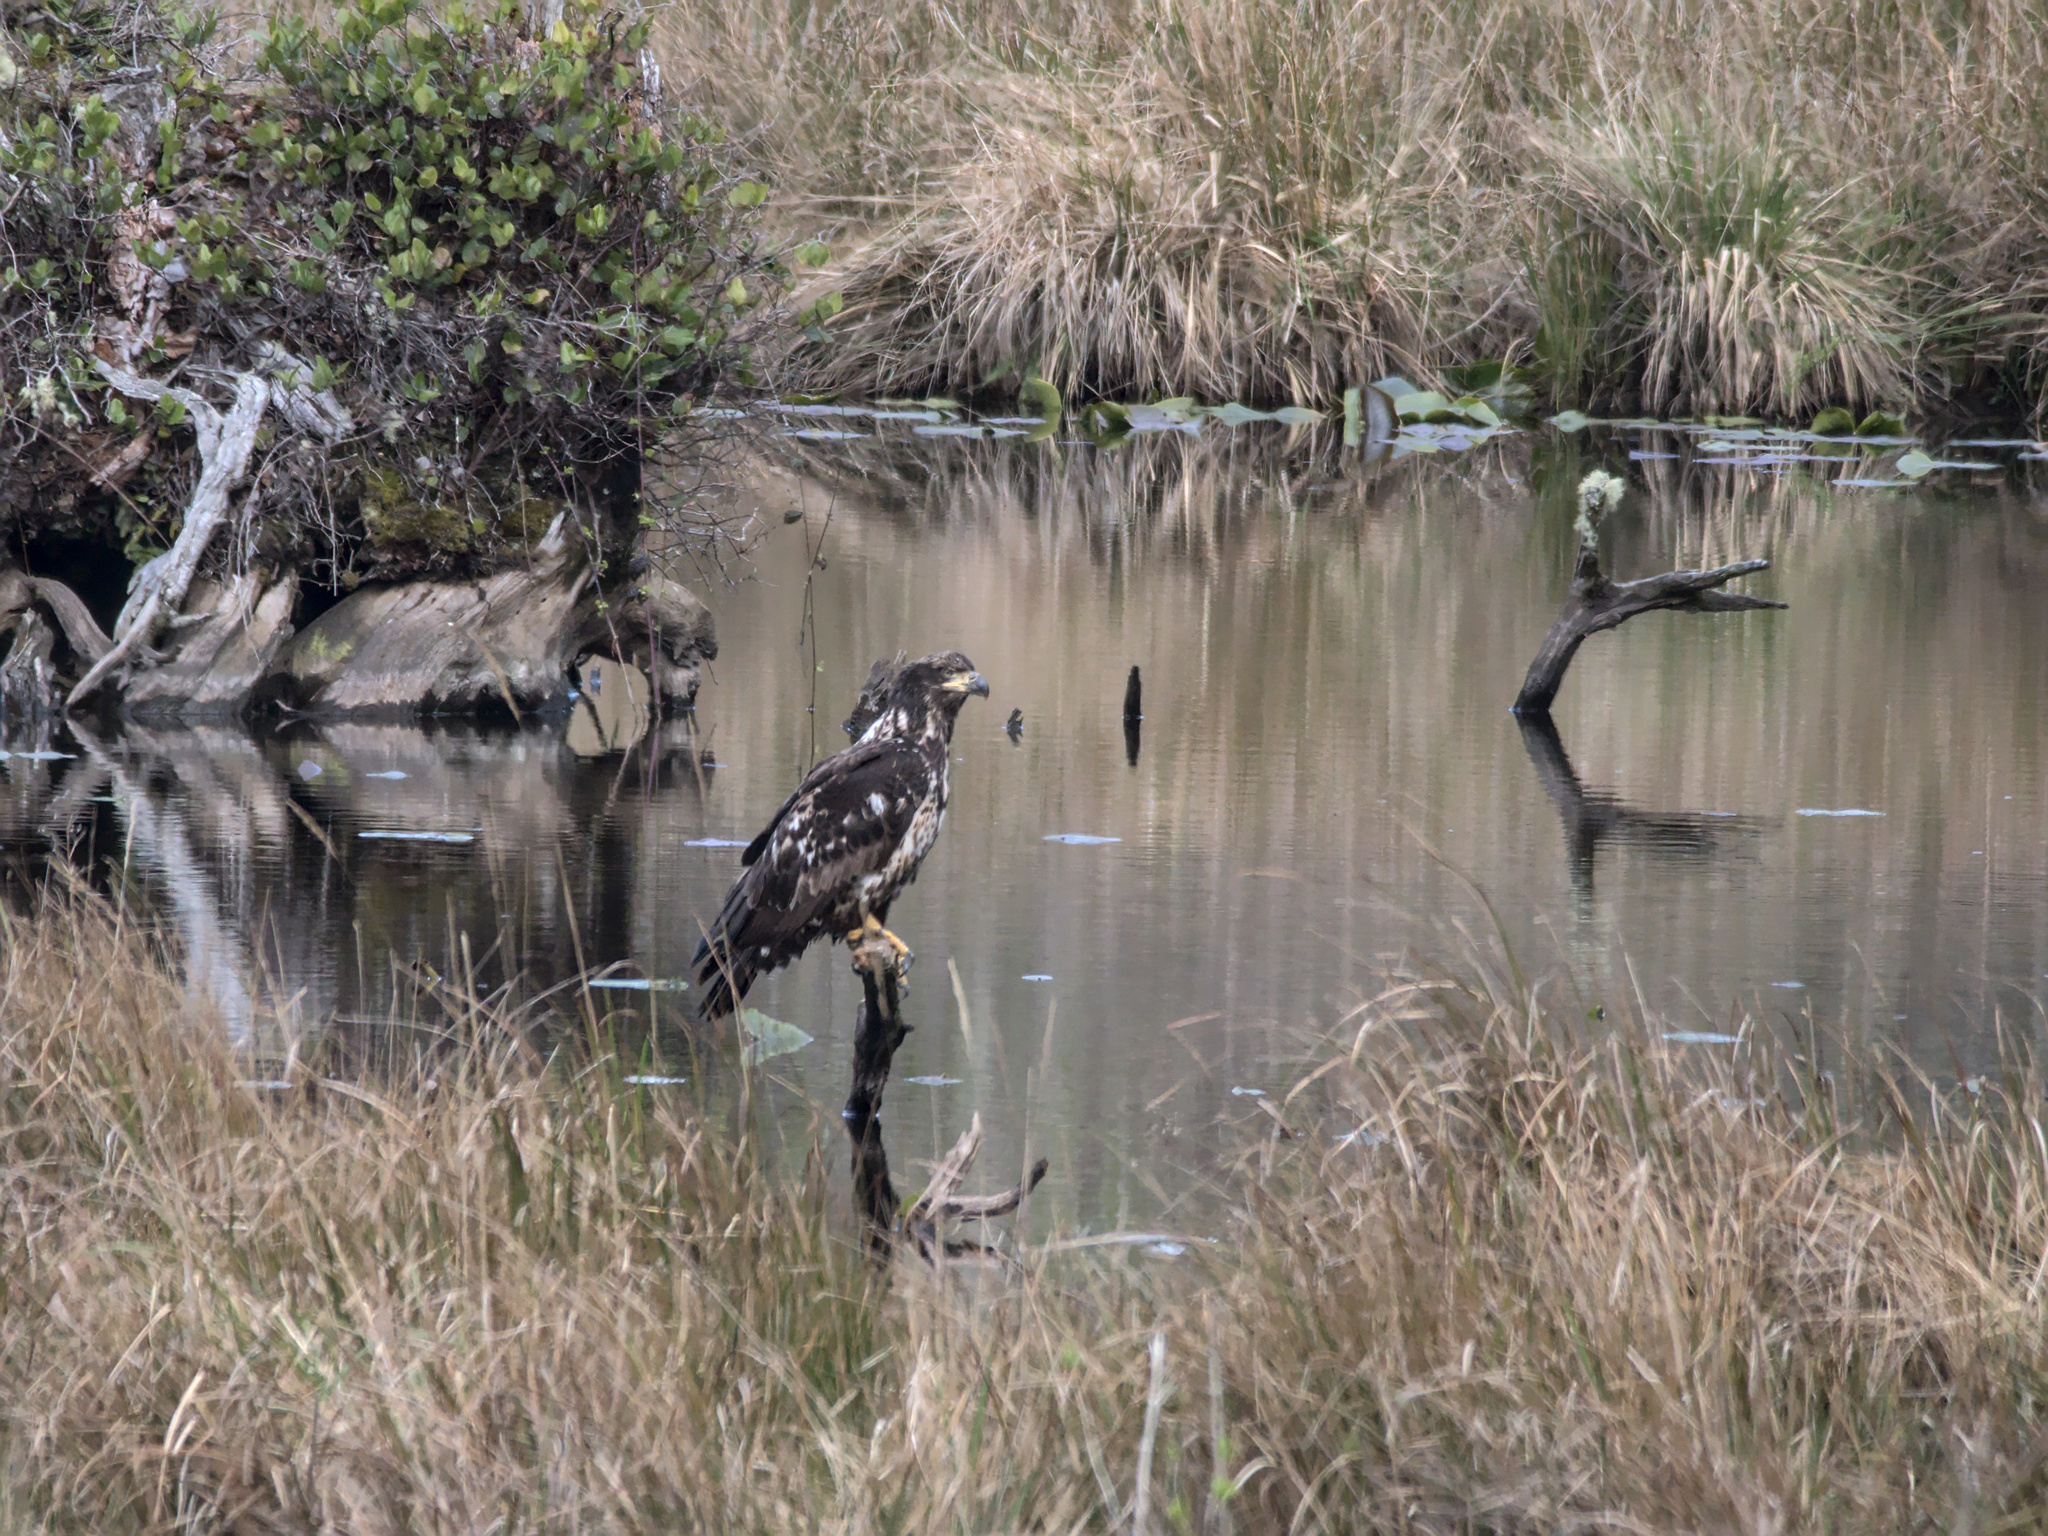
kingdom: Animalia
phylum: Chordata
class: Aves
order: Accipitriformes
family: Accipitridae
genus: Haliaeetus
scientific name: Haliaeetus leucocephalus
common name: Bald eagle
